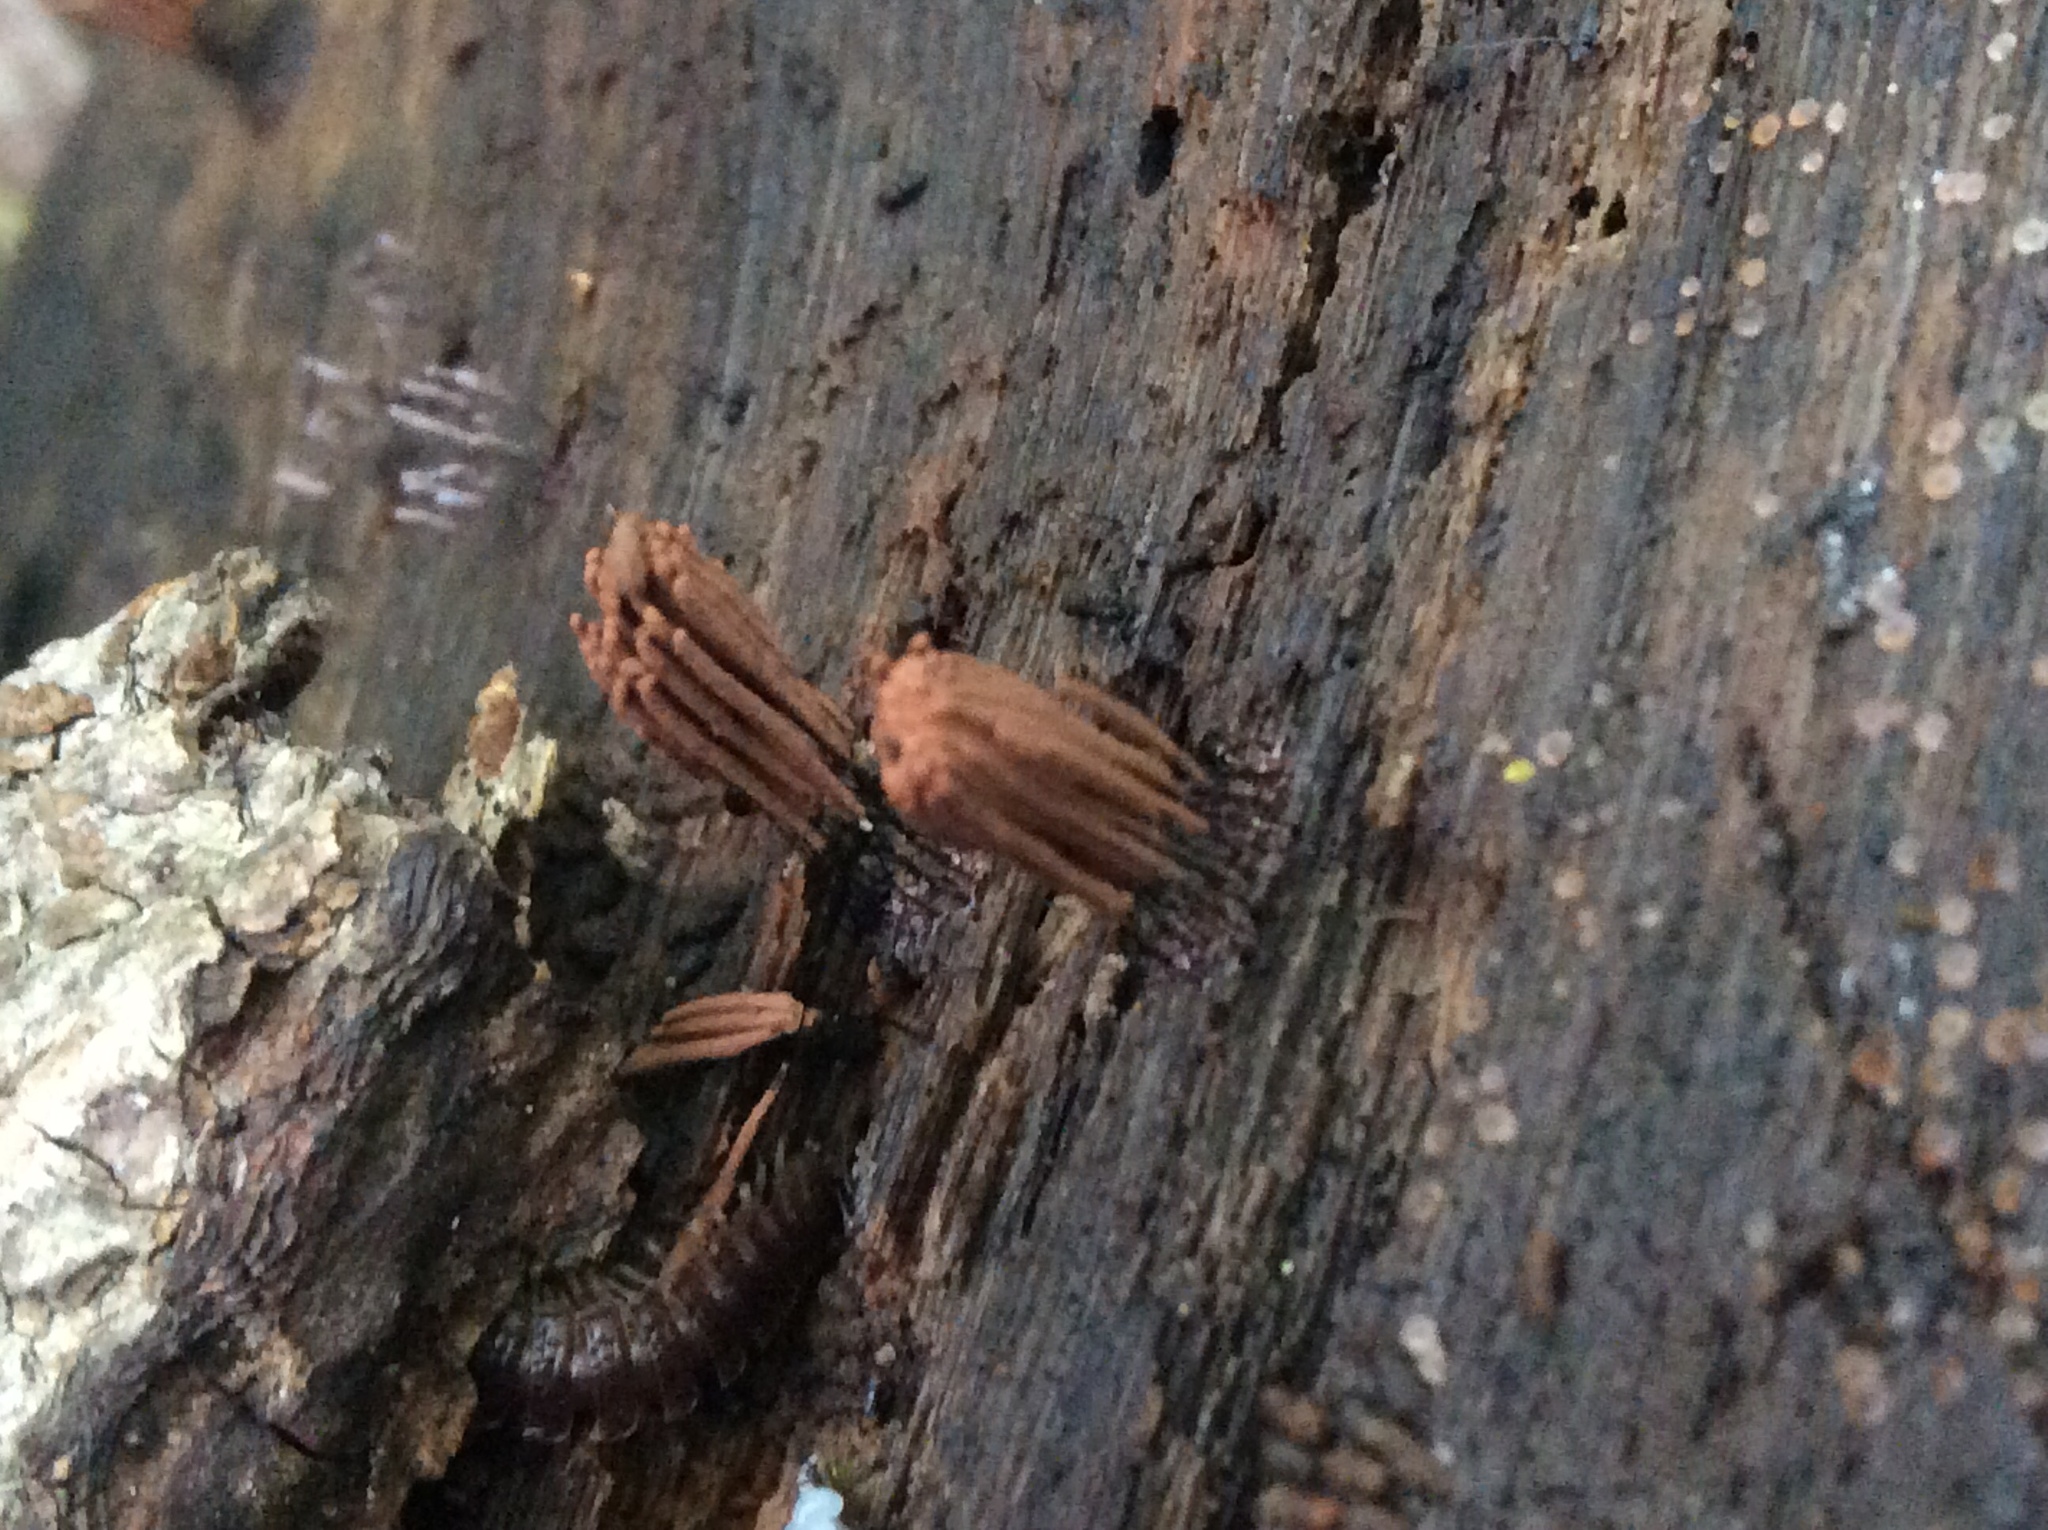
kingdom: Protozoa
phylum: Mycetozoa
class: Myxomycetes
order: Stemonitidales
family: Stemonitidaceae
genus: Stemonitis
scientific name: Stemonitis splendens
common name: Chocolate tube slime
